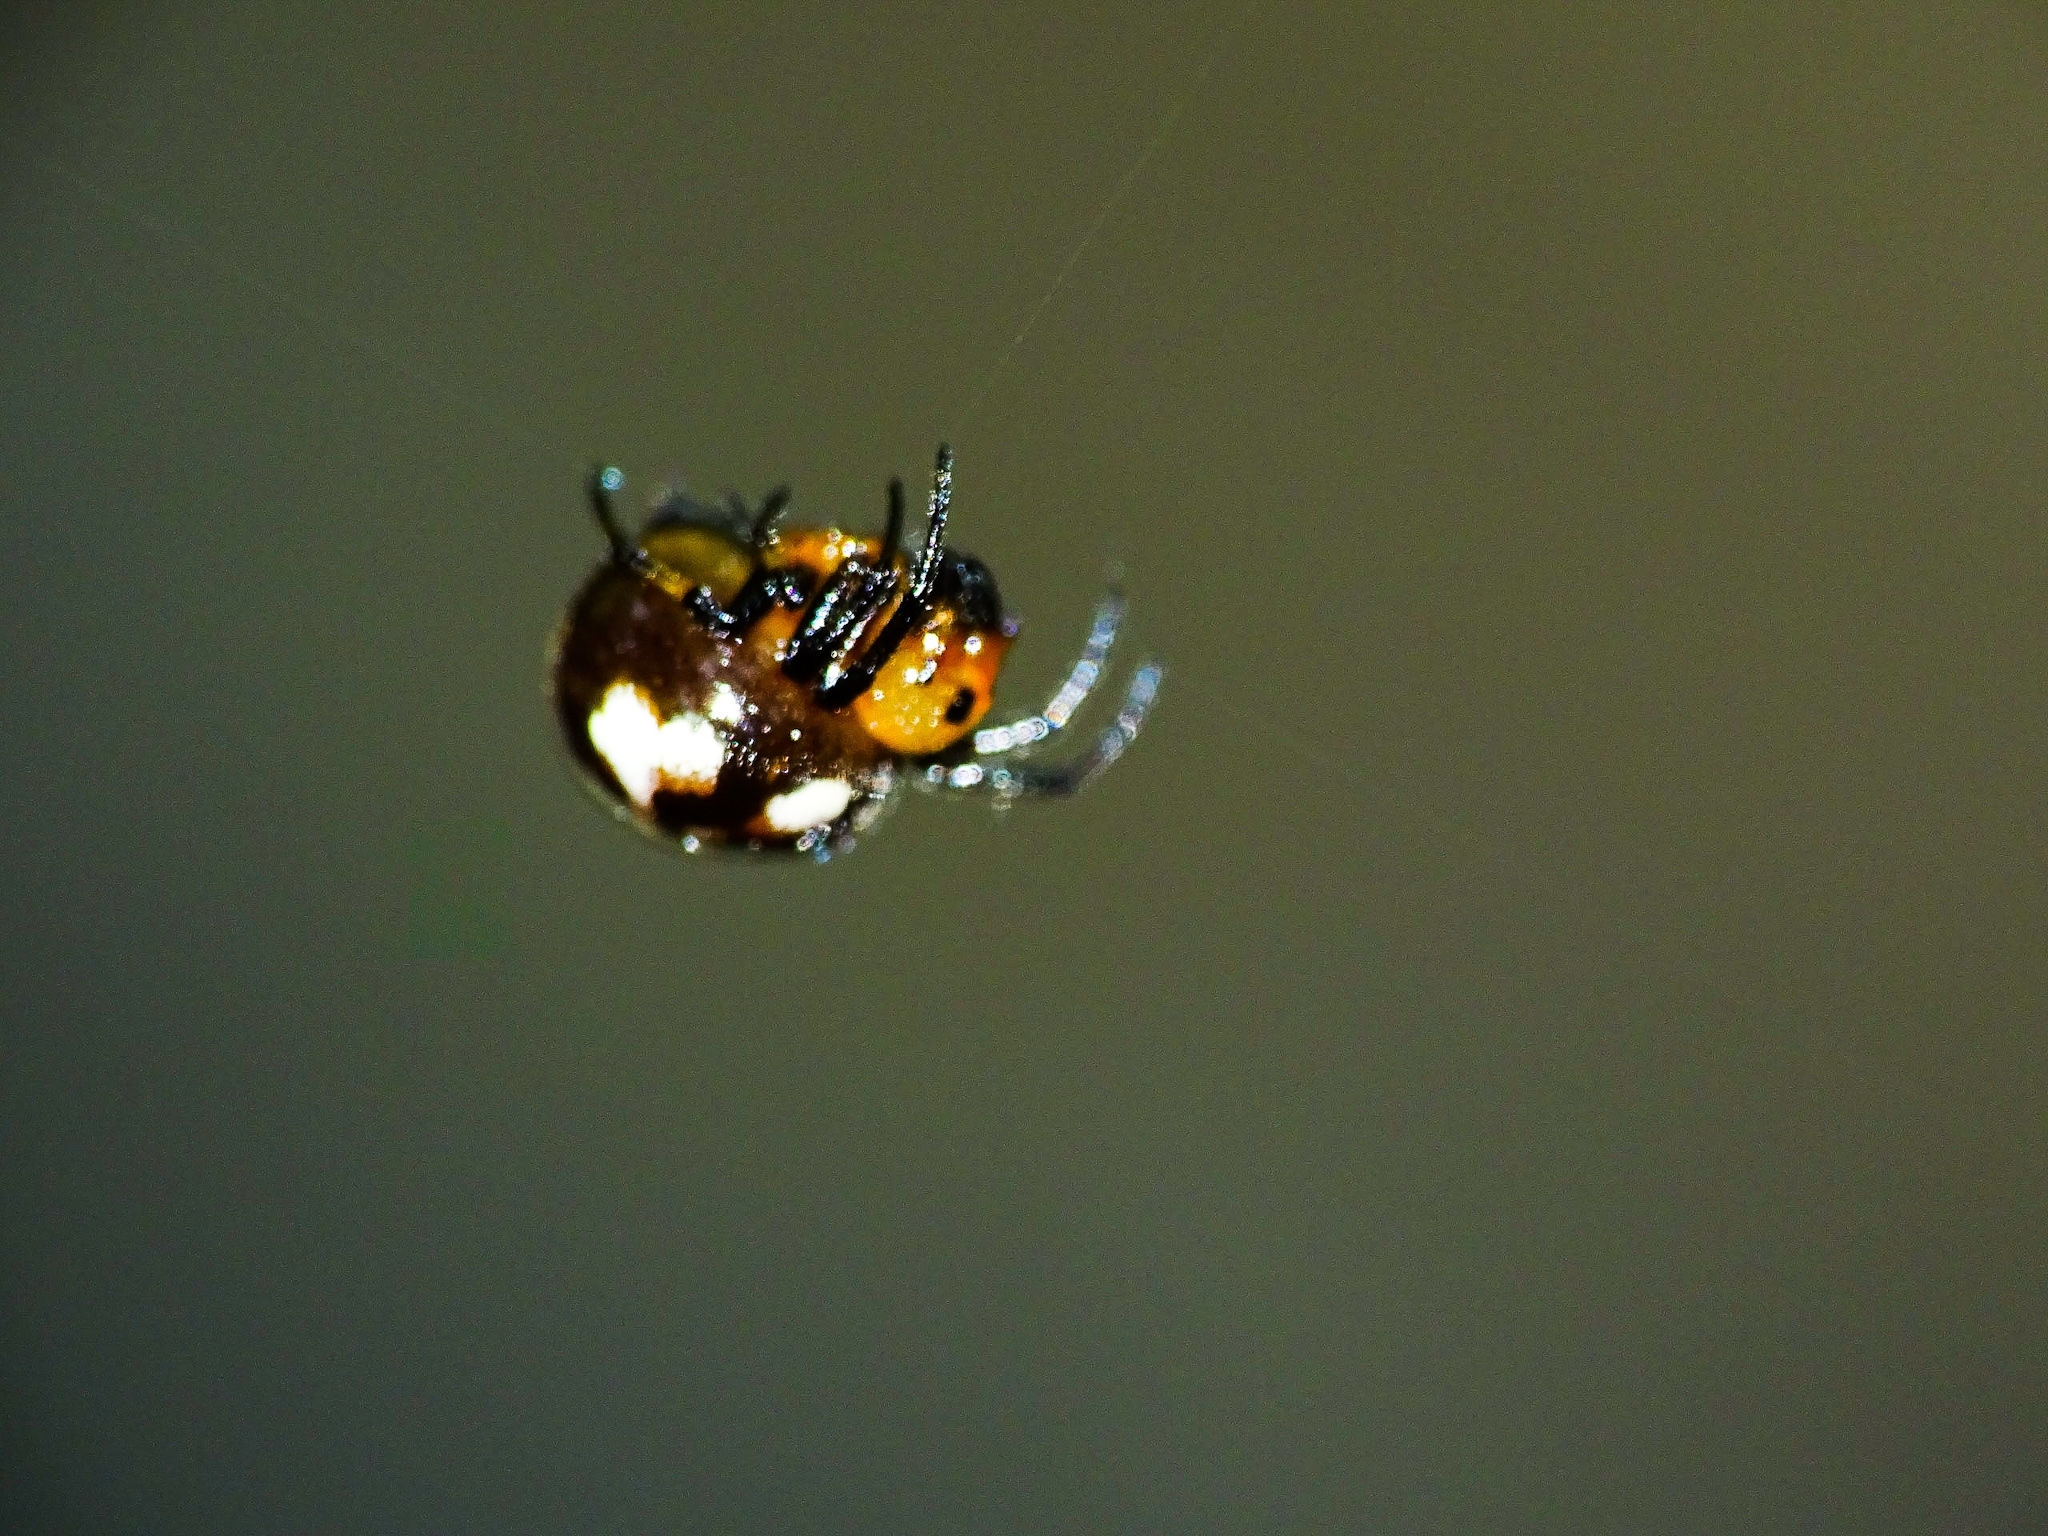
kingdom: Animalia
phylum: Arthropoda
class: Arachnida
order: Araneae
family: Araneidae
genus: Anepsion
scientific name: Anepsion maritatum
